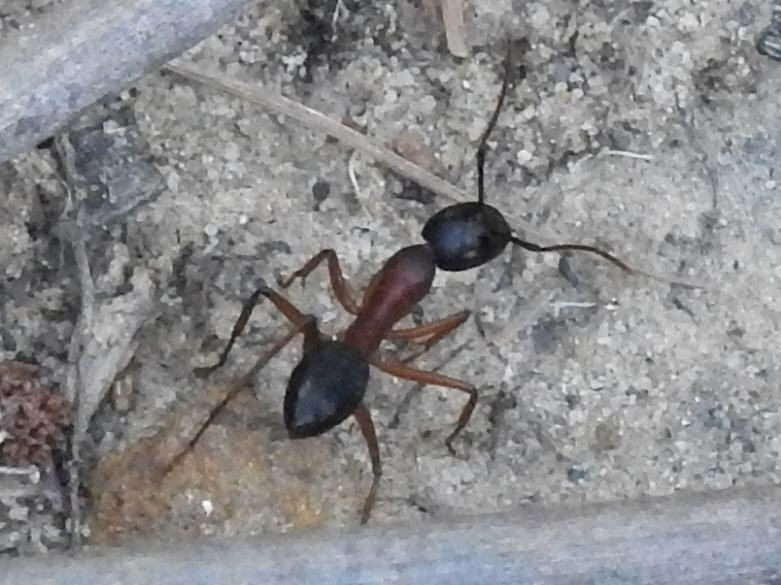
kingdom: Animalia
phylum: Arthropoda
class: Insecta
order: Hymenoptera
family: Formicidae
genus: Camponotus
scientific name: Camponotus consobrinus
